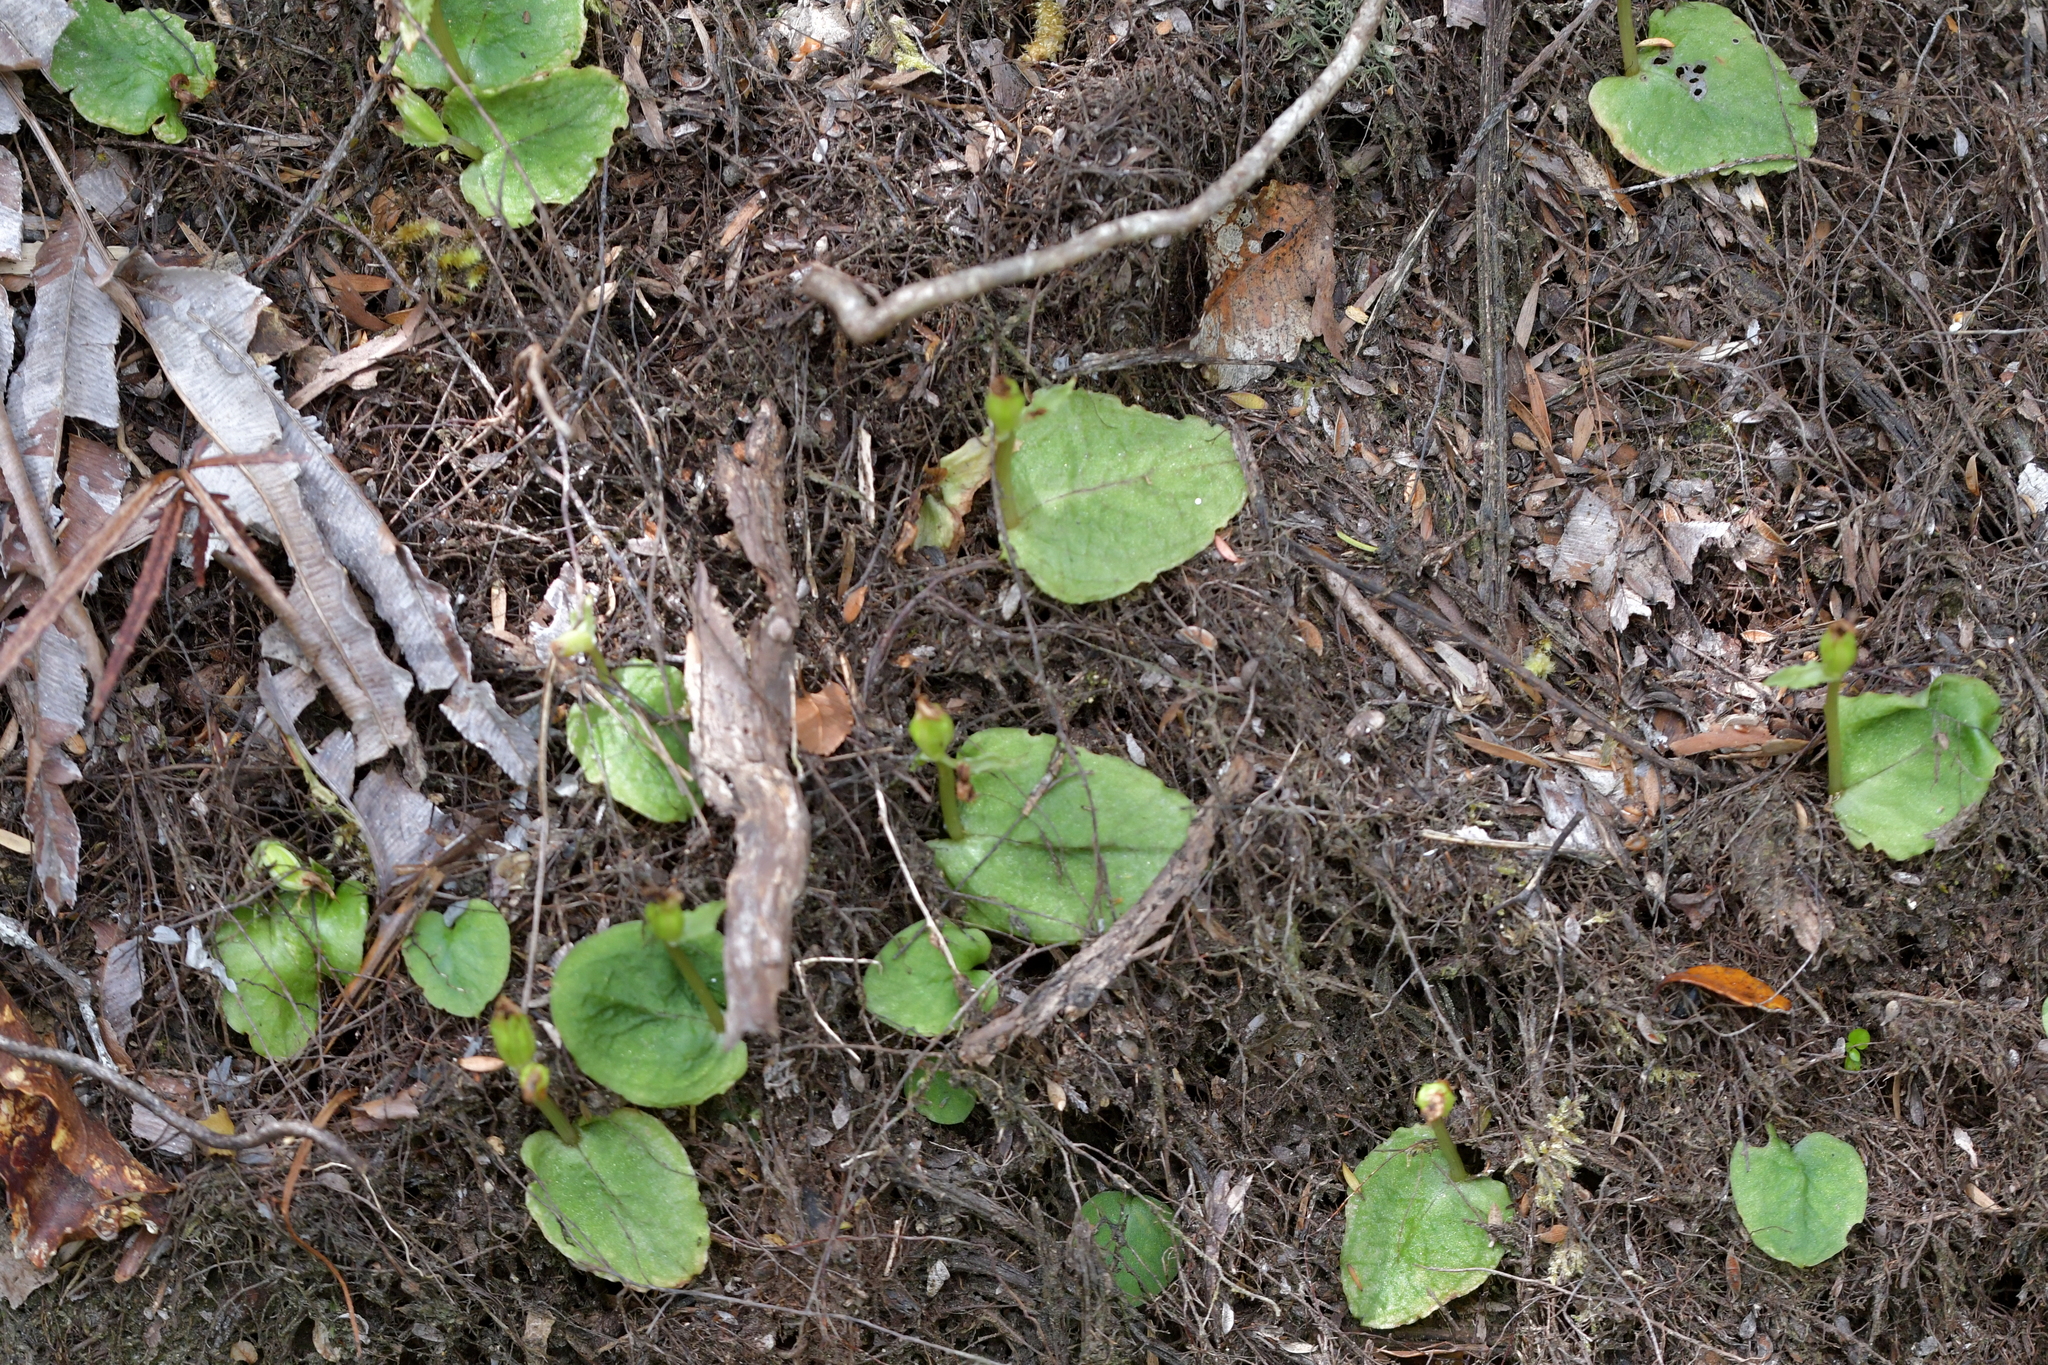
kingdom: Plantae
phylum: Tracheophyta
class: Liliopsida
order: Asparagales
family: Orchidaceae
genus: Corybas
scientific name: Corybas oblongus
